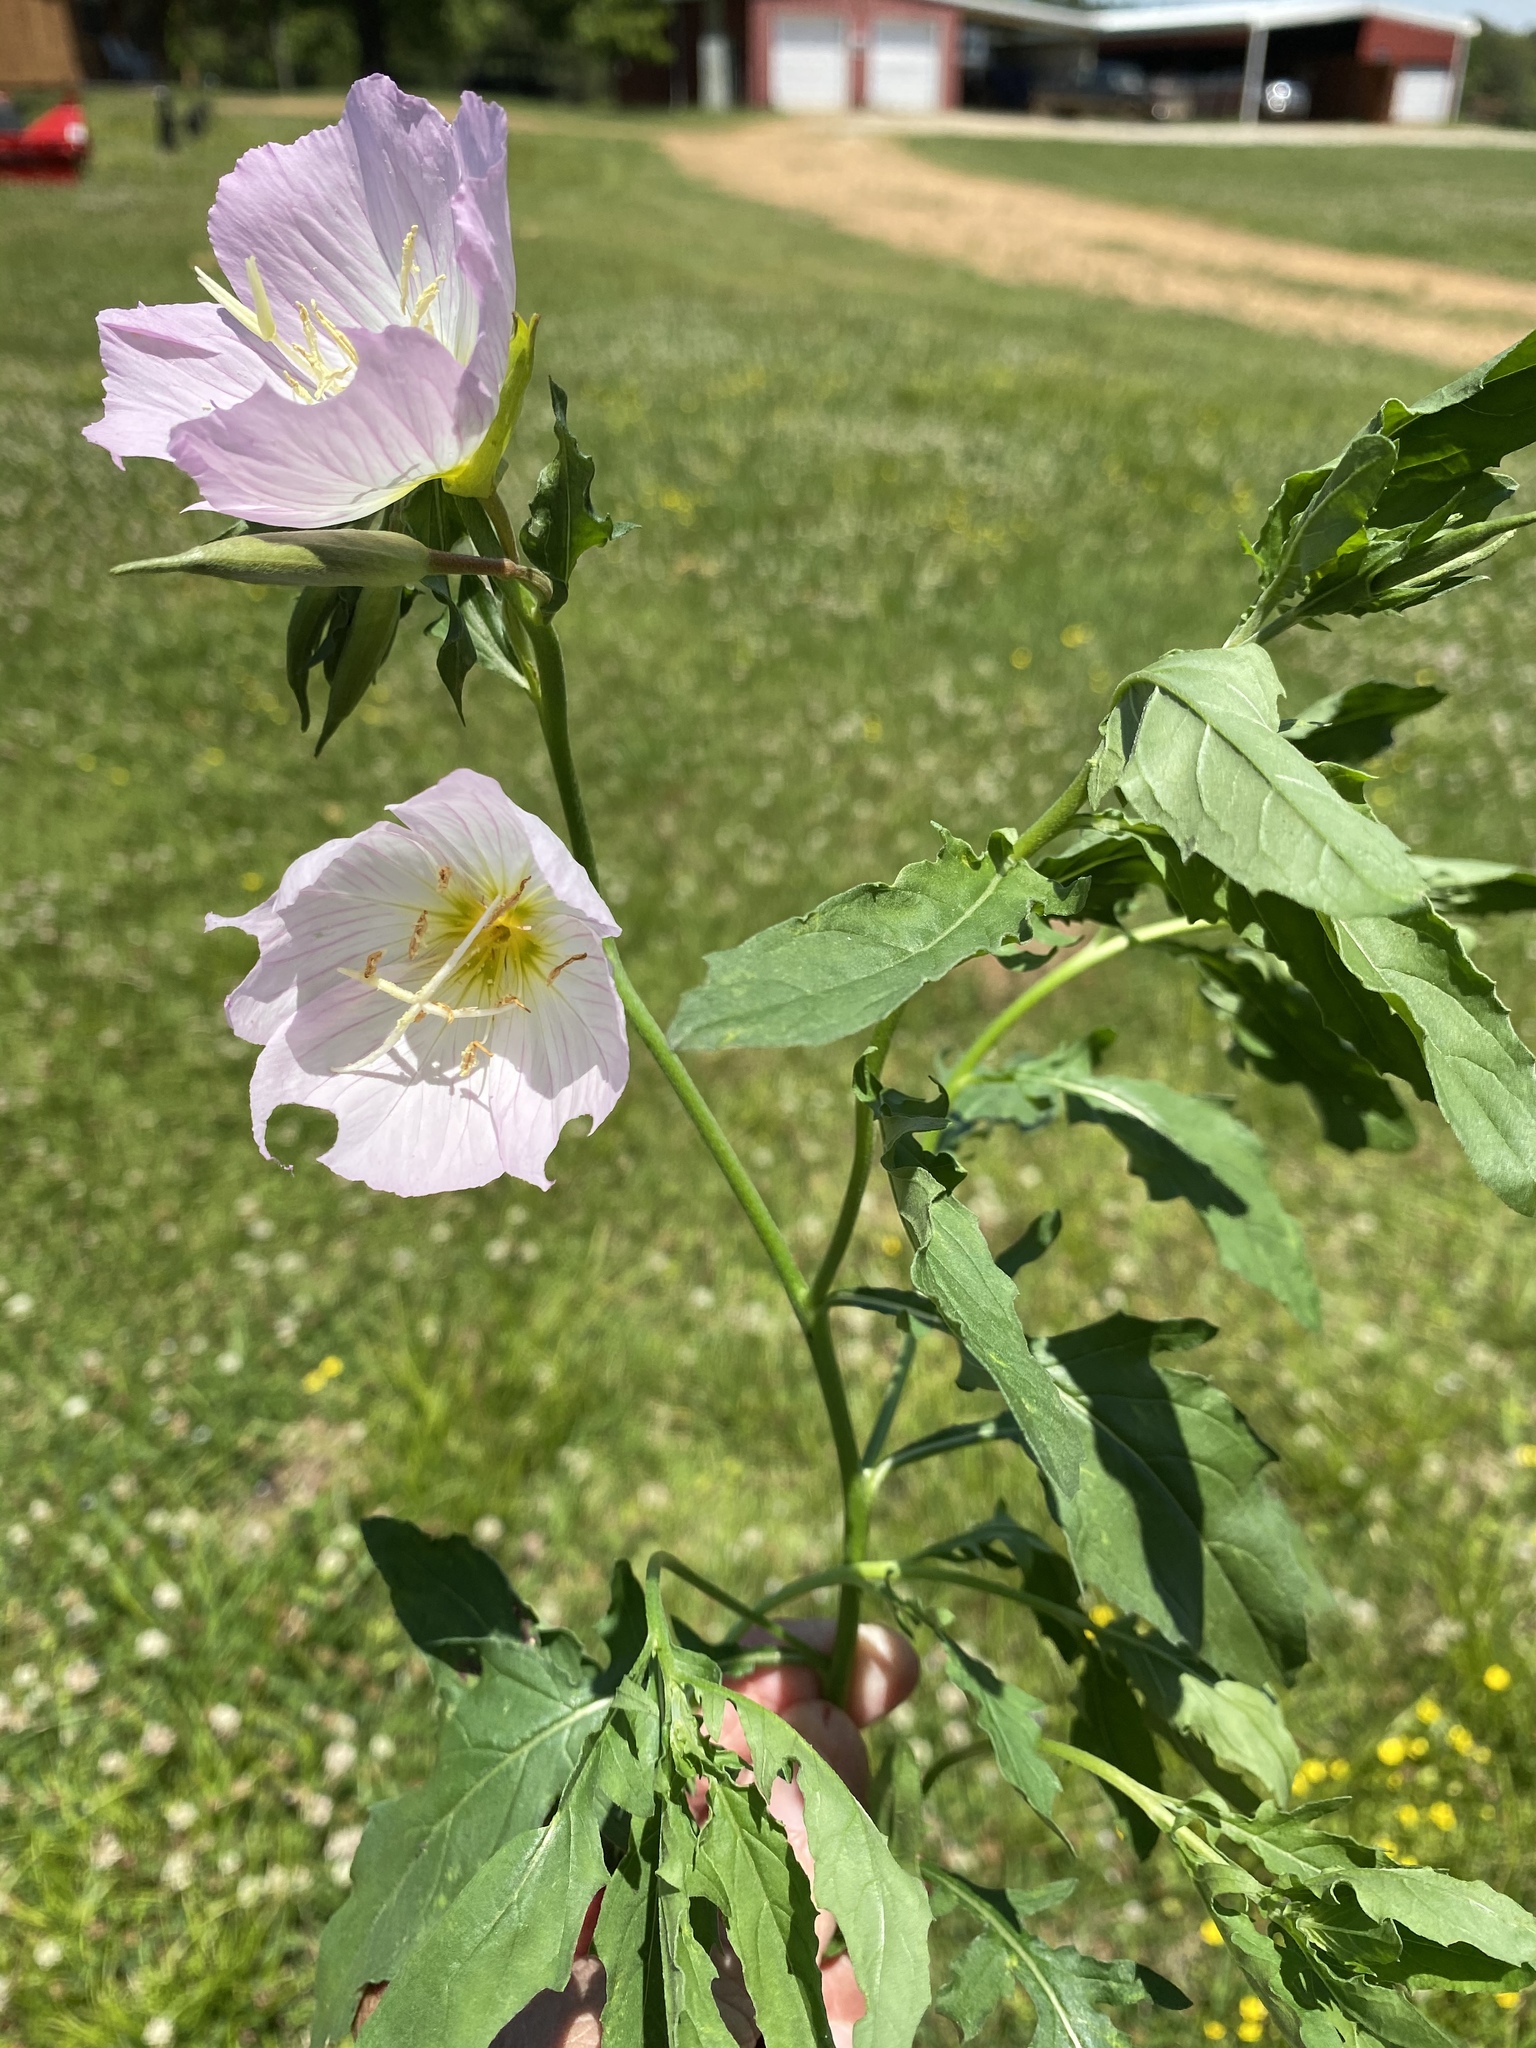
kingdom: Plantae
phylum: Tracheophyta
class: Magnoliopsida
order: Myrtales
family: Onagraceae
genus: Oenothera
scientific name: Oenothera speciosa
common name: White evening-primrose
